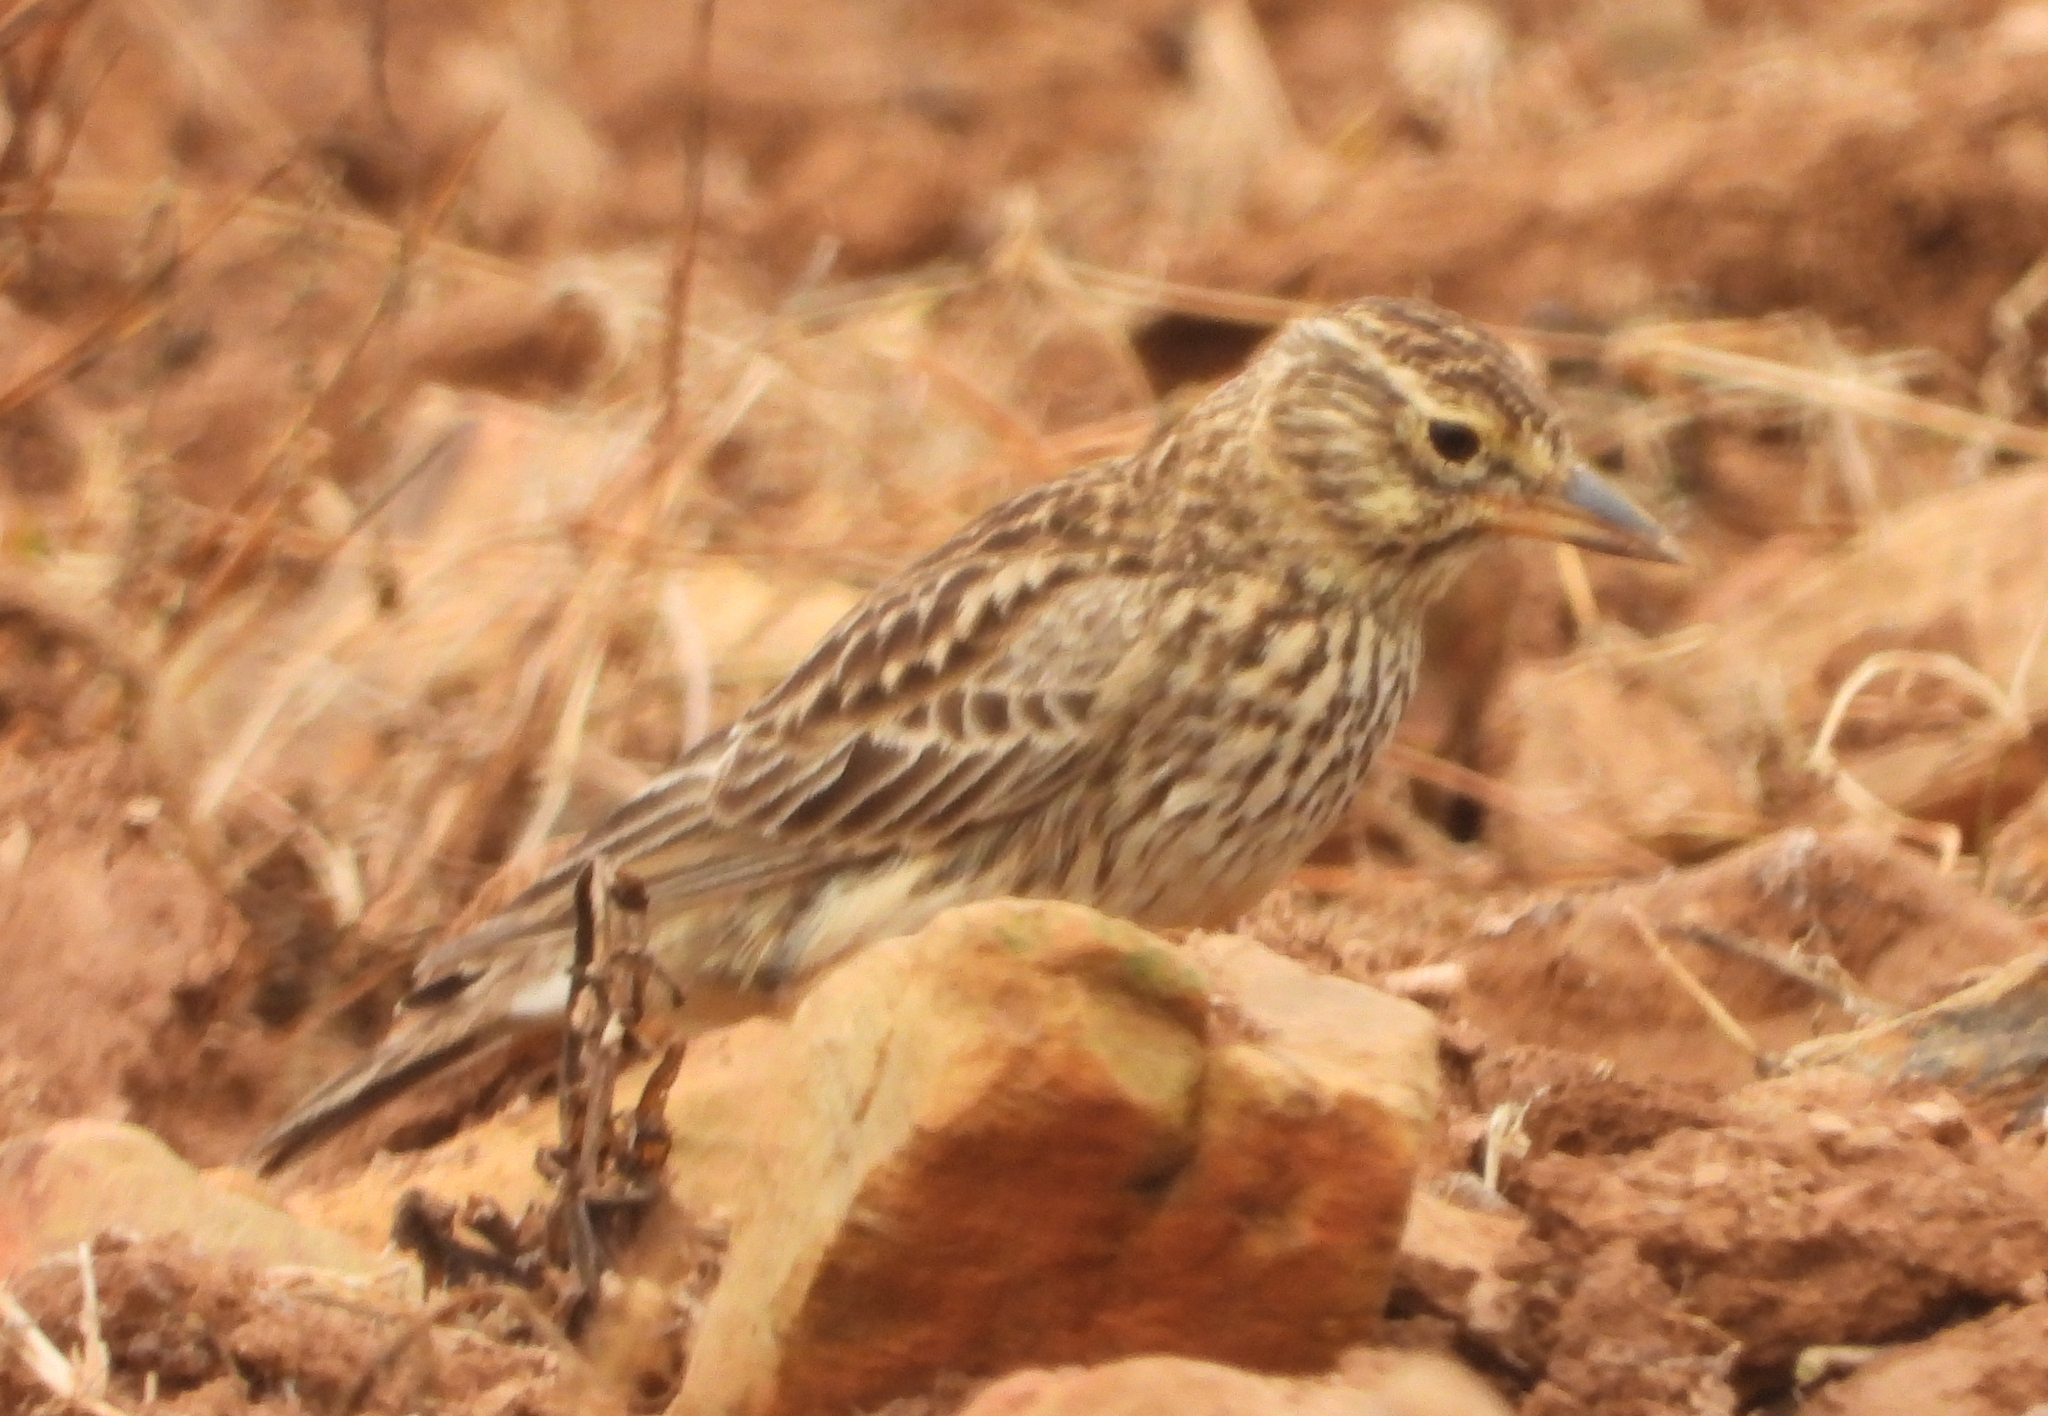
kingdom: Animalia
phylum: Chordata
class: Aves
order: Passeriformes
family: Alaudidae
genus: Galerida
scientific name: Galerida magnirostris
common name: Large-billed lark
